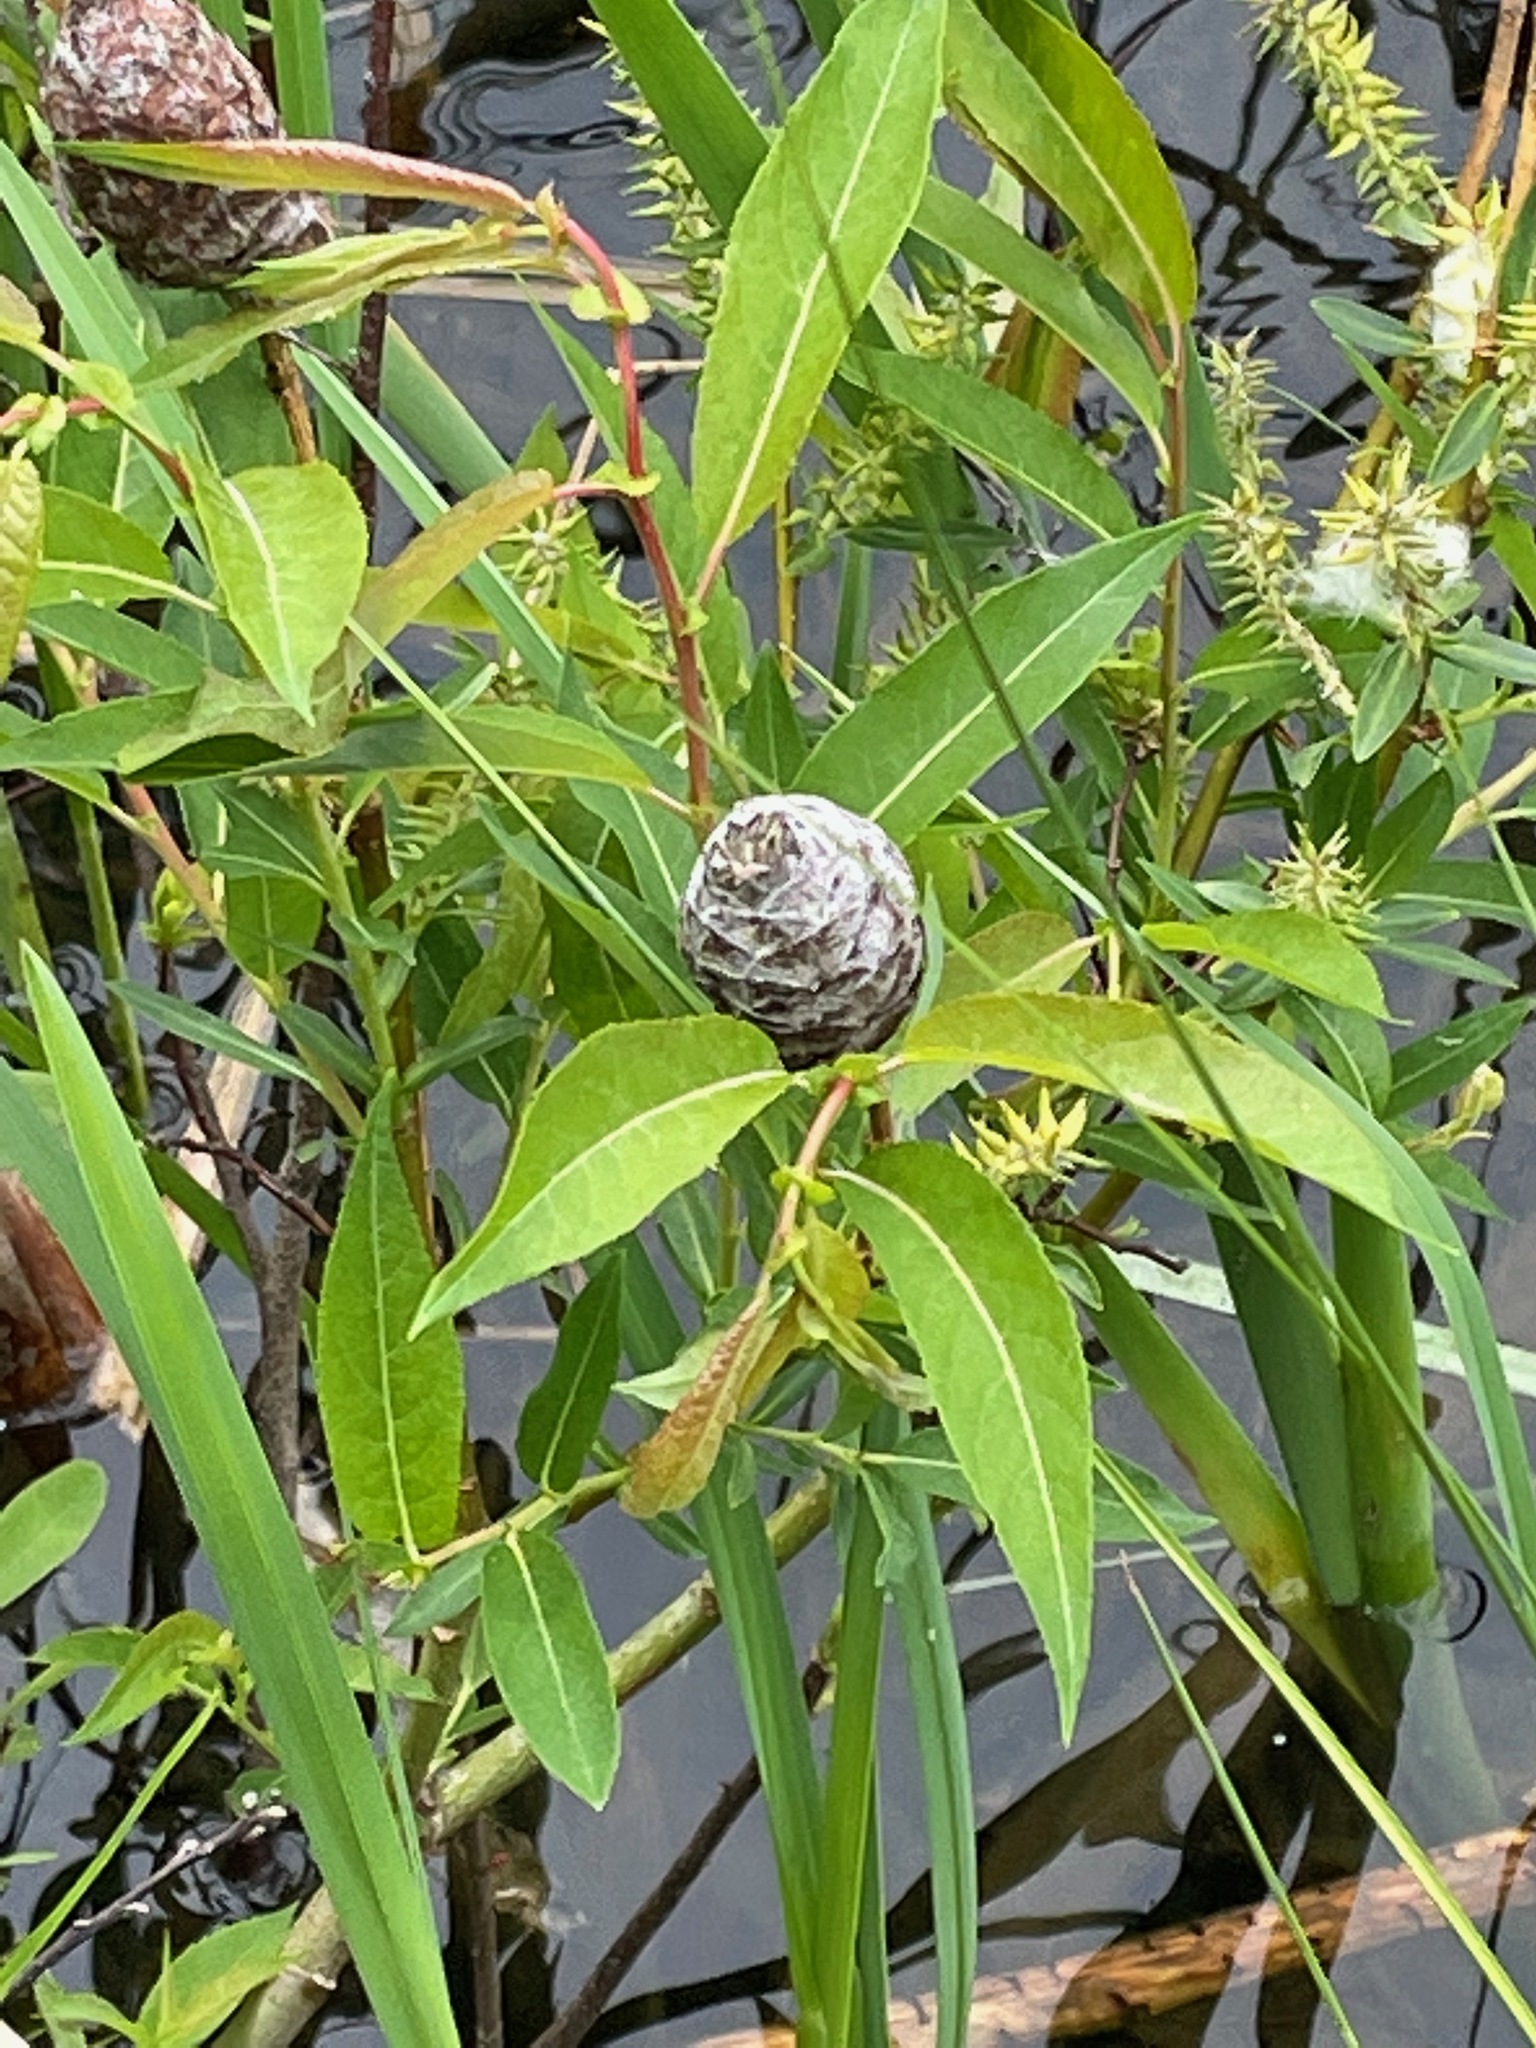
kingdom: Animalia
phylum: Arthropoda
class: Insecta
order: Diptera
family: Cecidomyiidae
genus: Rabdophaga
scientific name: Rabdophaga strobiloides
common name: Willow pinecone gall midge
